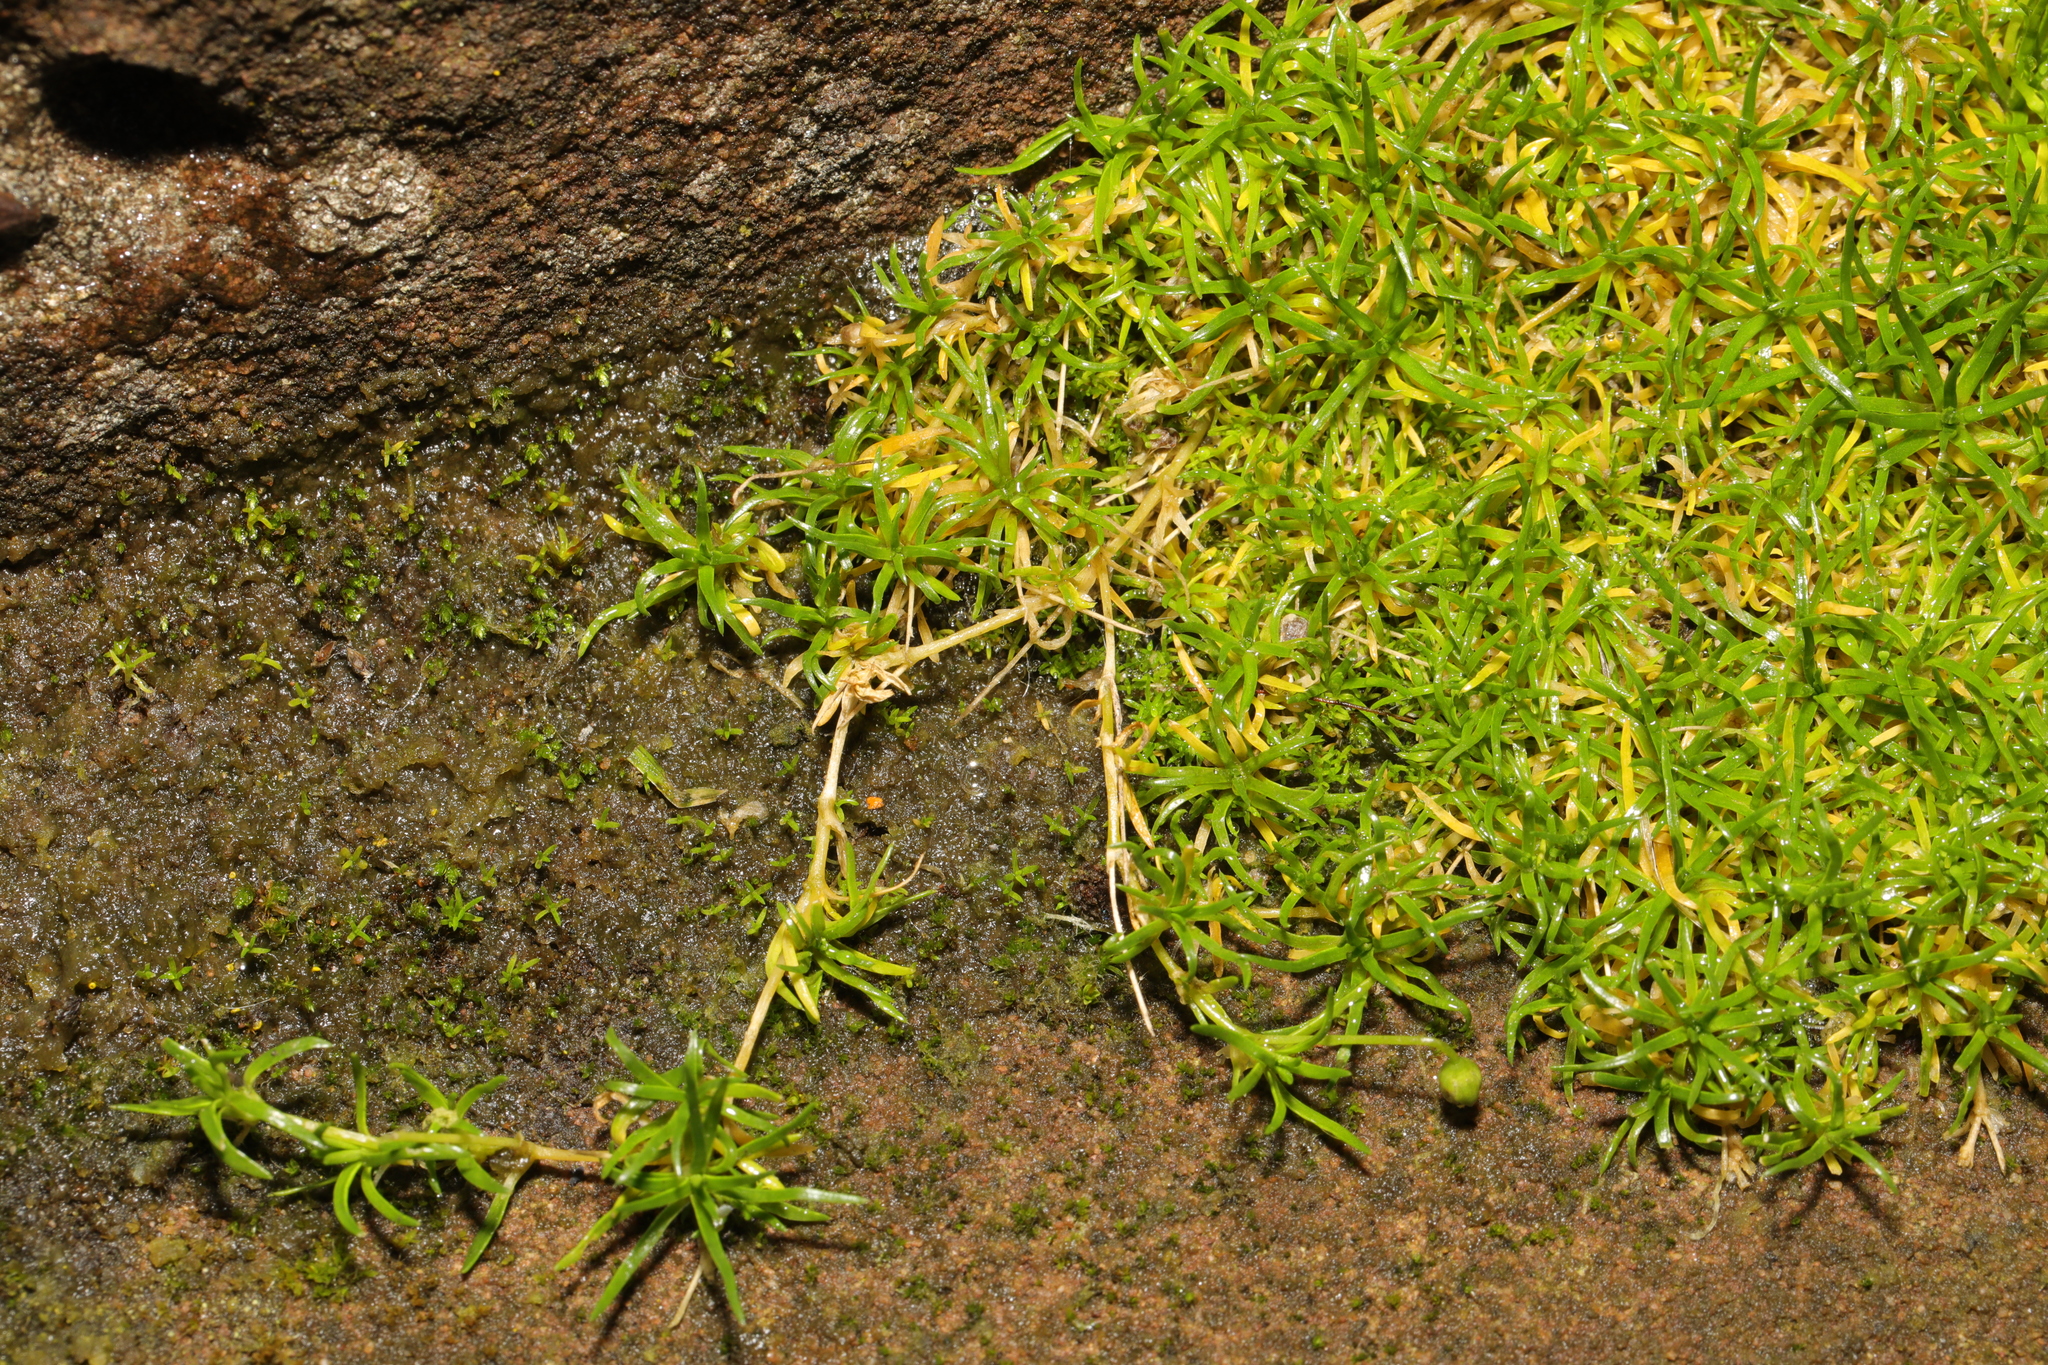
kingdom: Plantae
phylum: Tracheophyta
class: Magnoliopsida
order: Caryophyllales
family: Caryophyllaceae
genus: Sagina
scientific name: Sagina procumbens
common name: Procumbent pearlwort
